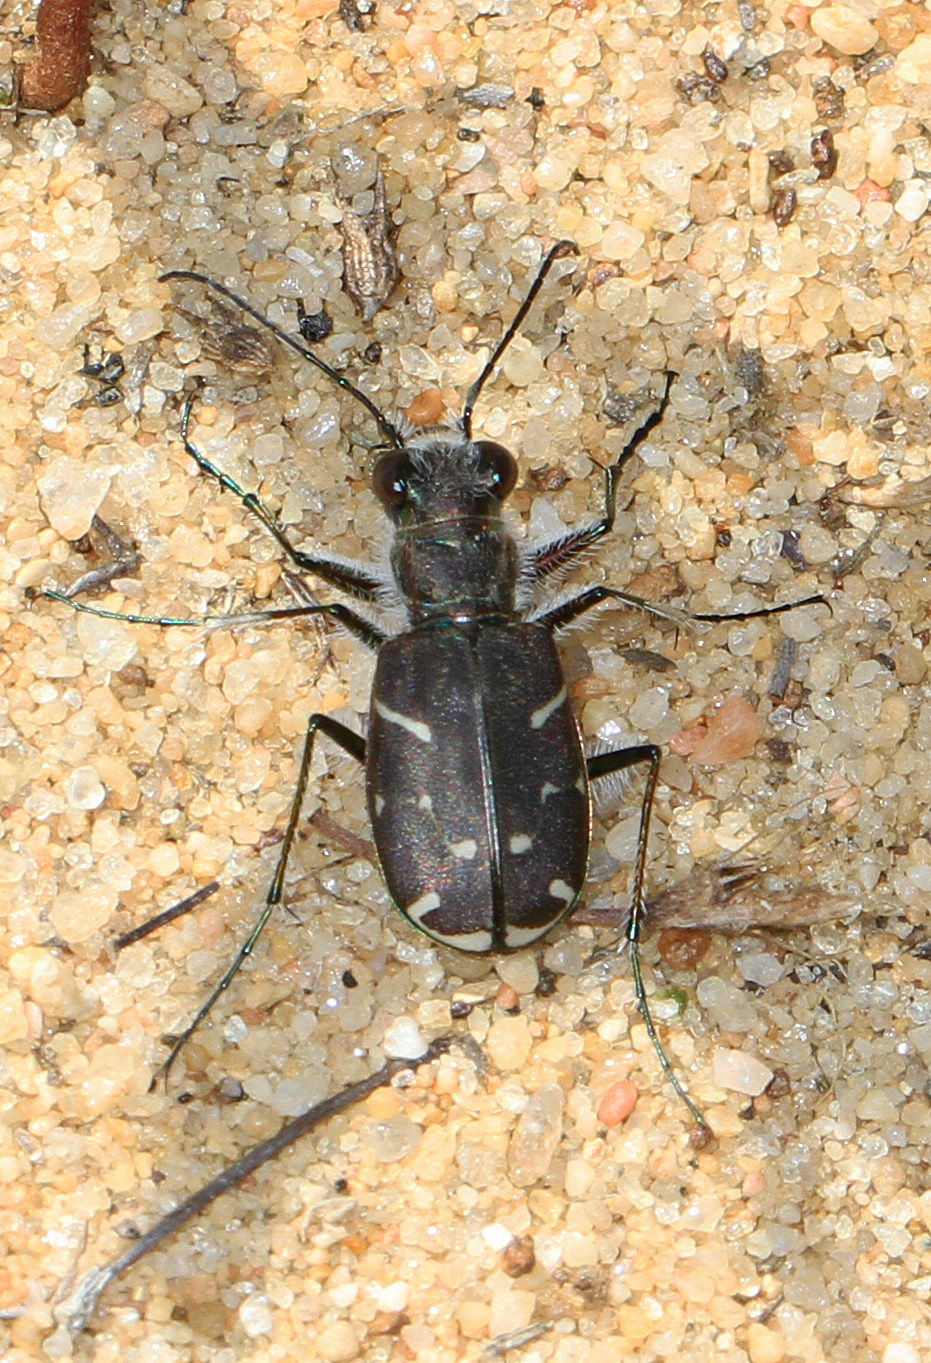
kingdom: Animalia
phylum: Arthropoda
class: Insecta
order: Coleoptera
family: Carabidae
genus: Cicindela
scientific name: Cicindela tranquebarica
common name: Oblique-lined tiger beetle
